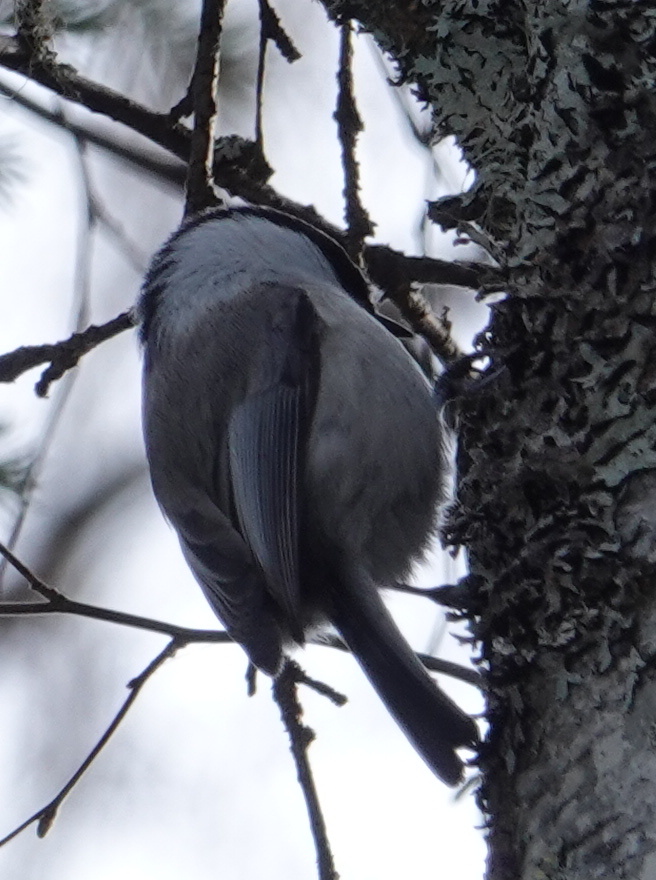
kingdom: Animalia
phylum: Chordata
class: Aves
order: Passeriformes
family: Paridae
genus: Poecile
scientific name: Poecile montanus
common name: Willow tit
